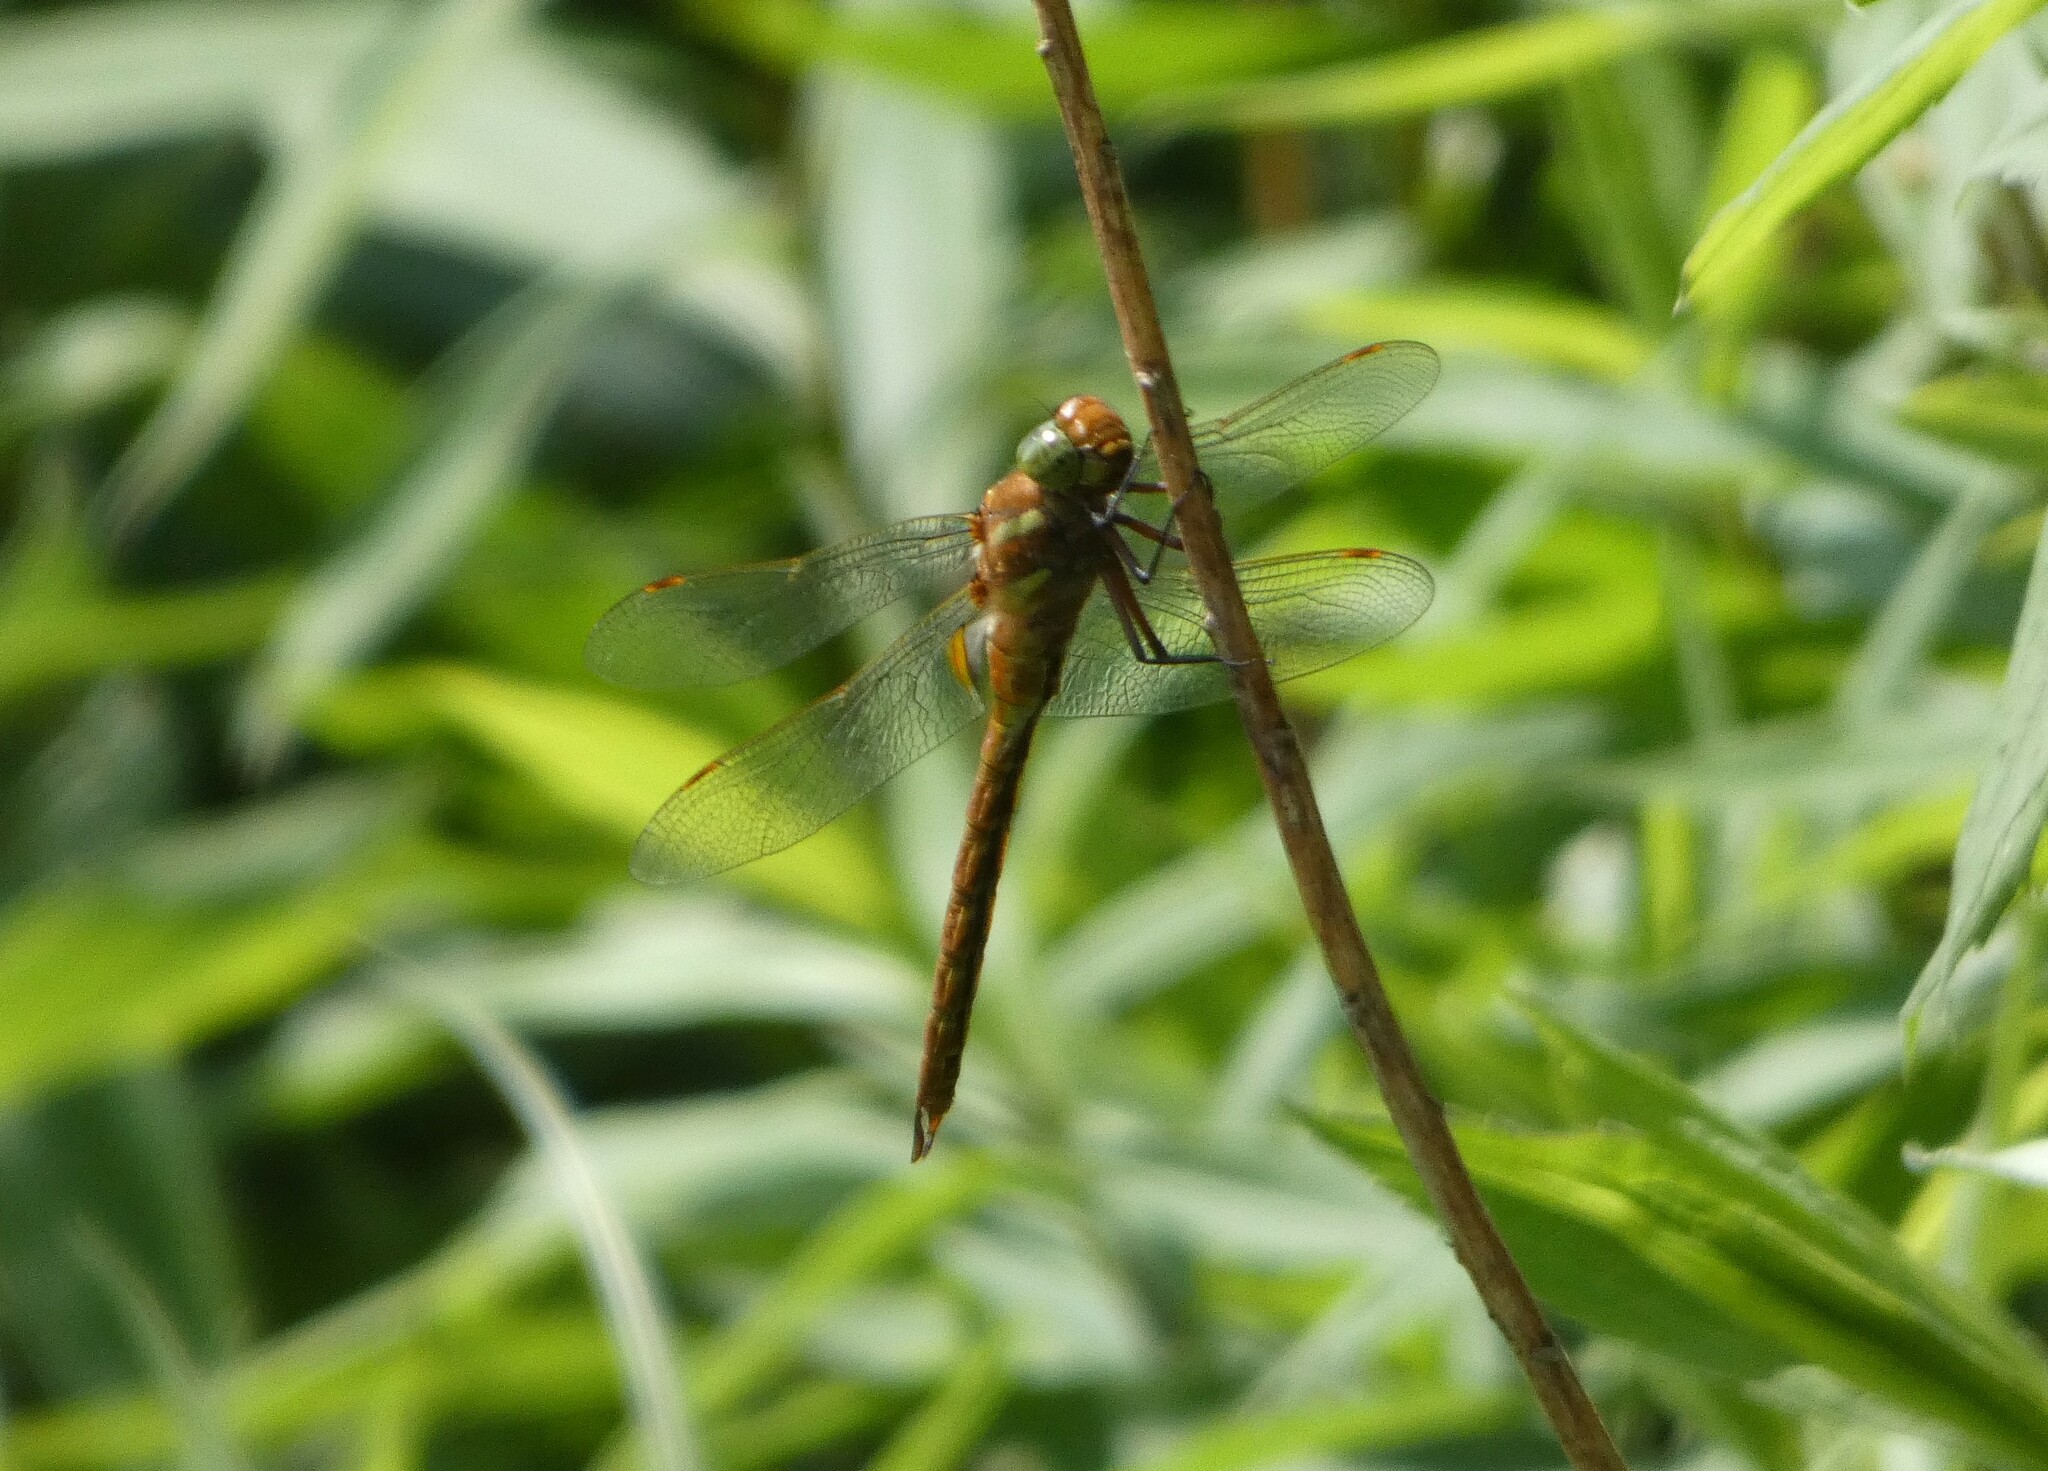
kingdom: Animalia
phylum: Arthropoda
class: Insecta
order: Odonata
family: Aeshnidae
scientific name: Aeshnidae
